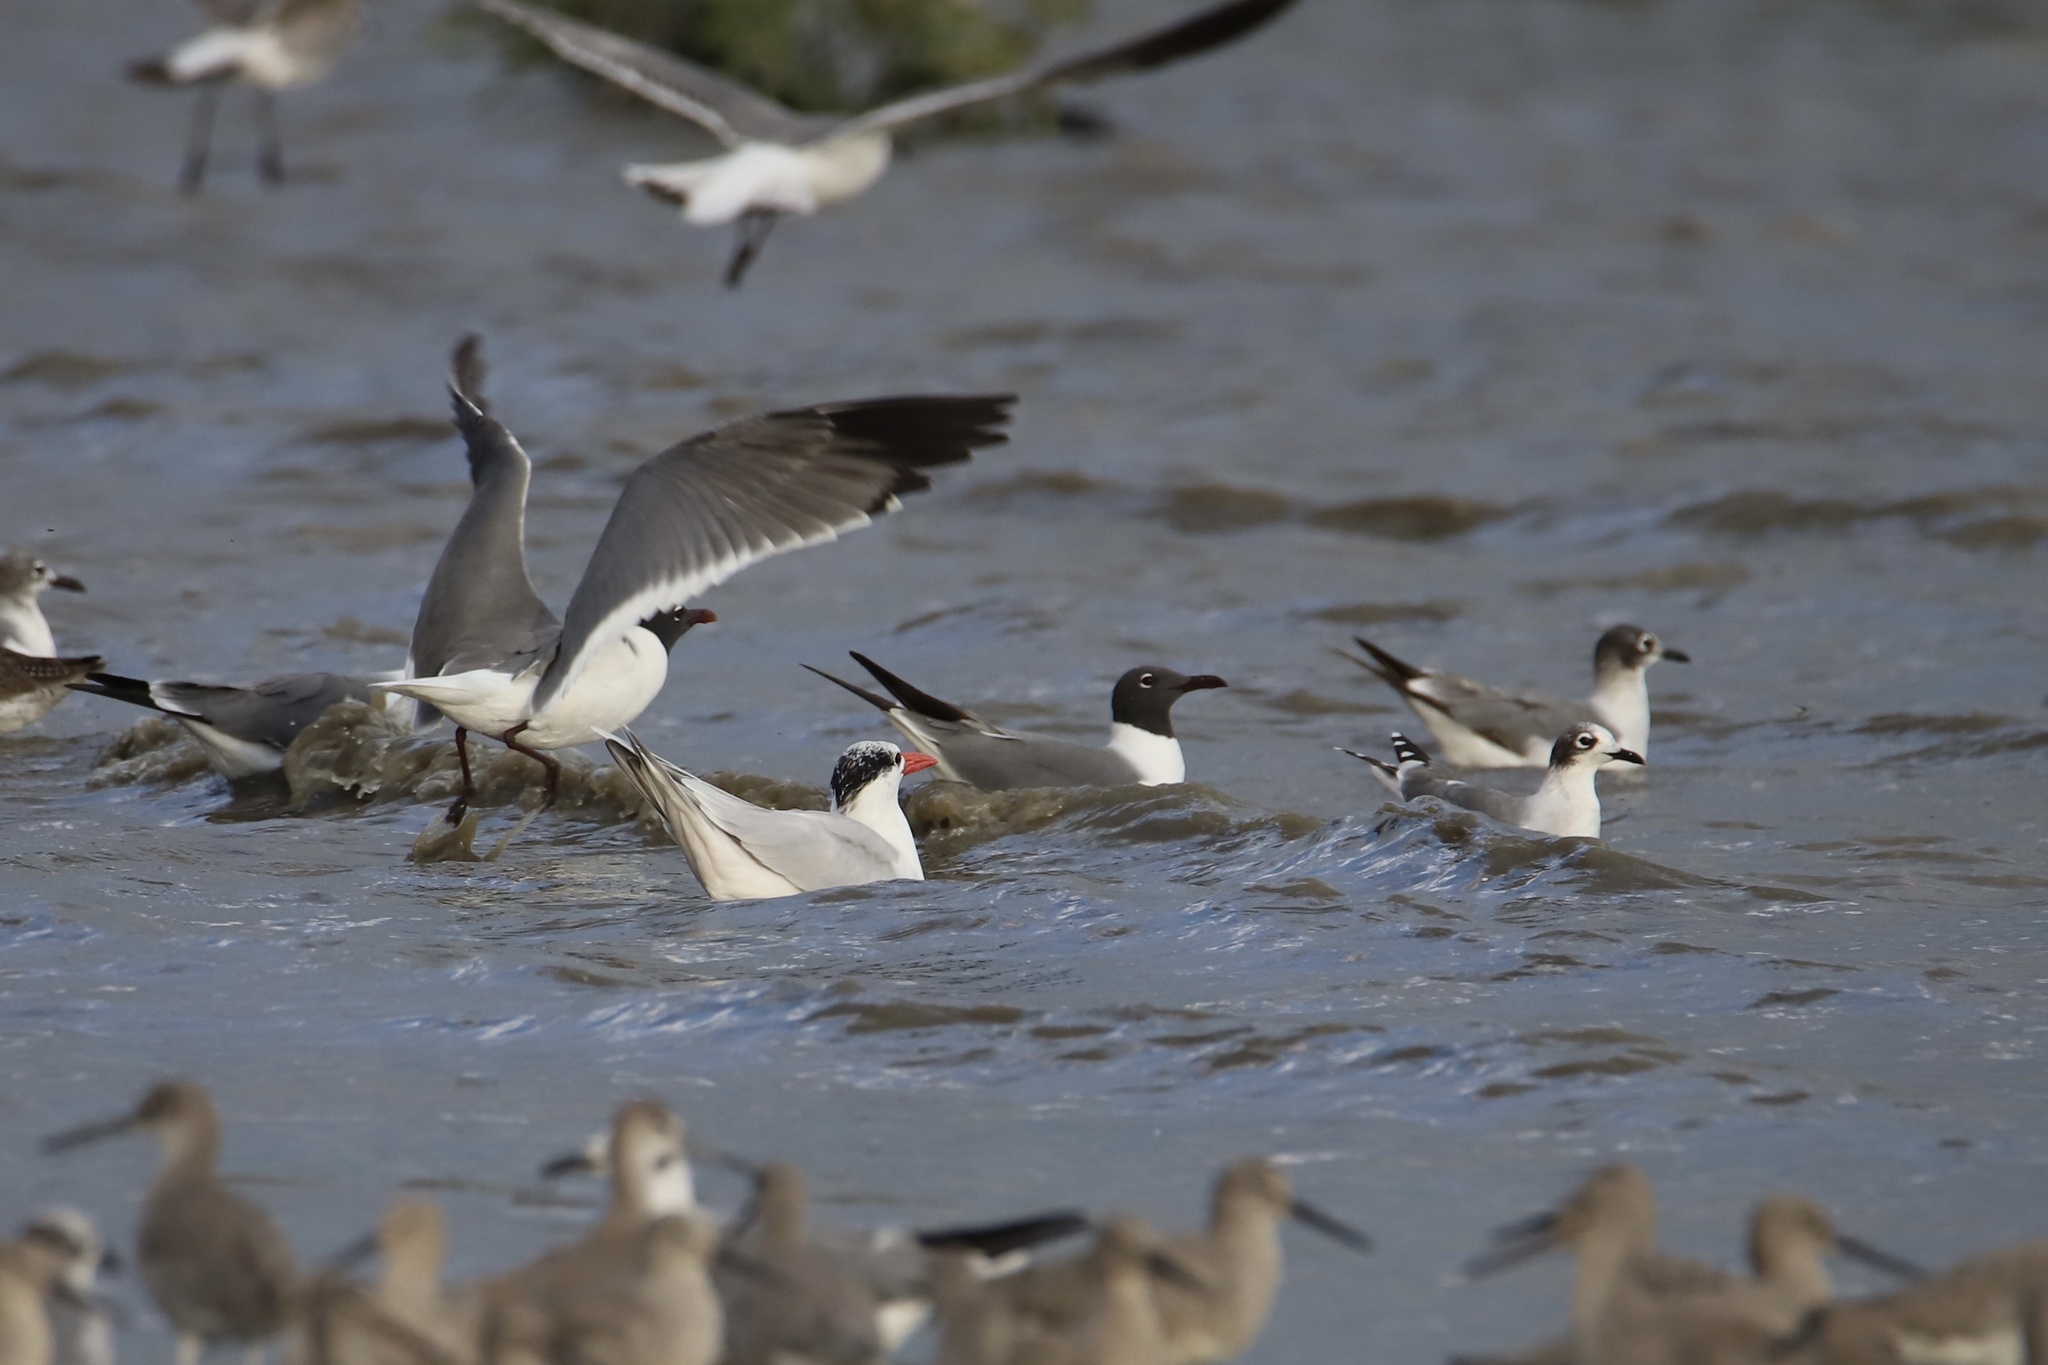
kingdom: Animalia
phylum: Chordata
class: Aves
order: Charadriiformes
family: Laridae
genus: Leucophaeus
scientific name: Leucophaeus pipixcan
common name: Franklin's gull
